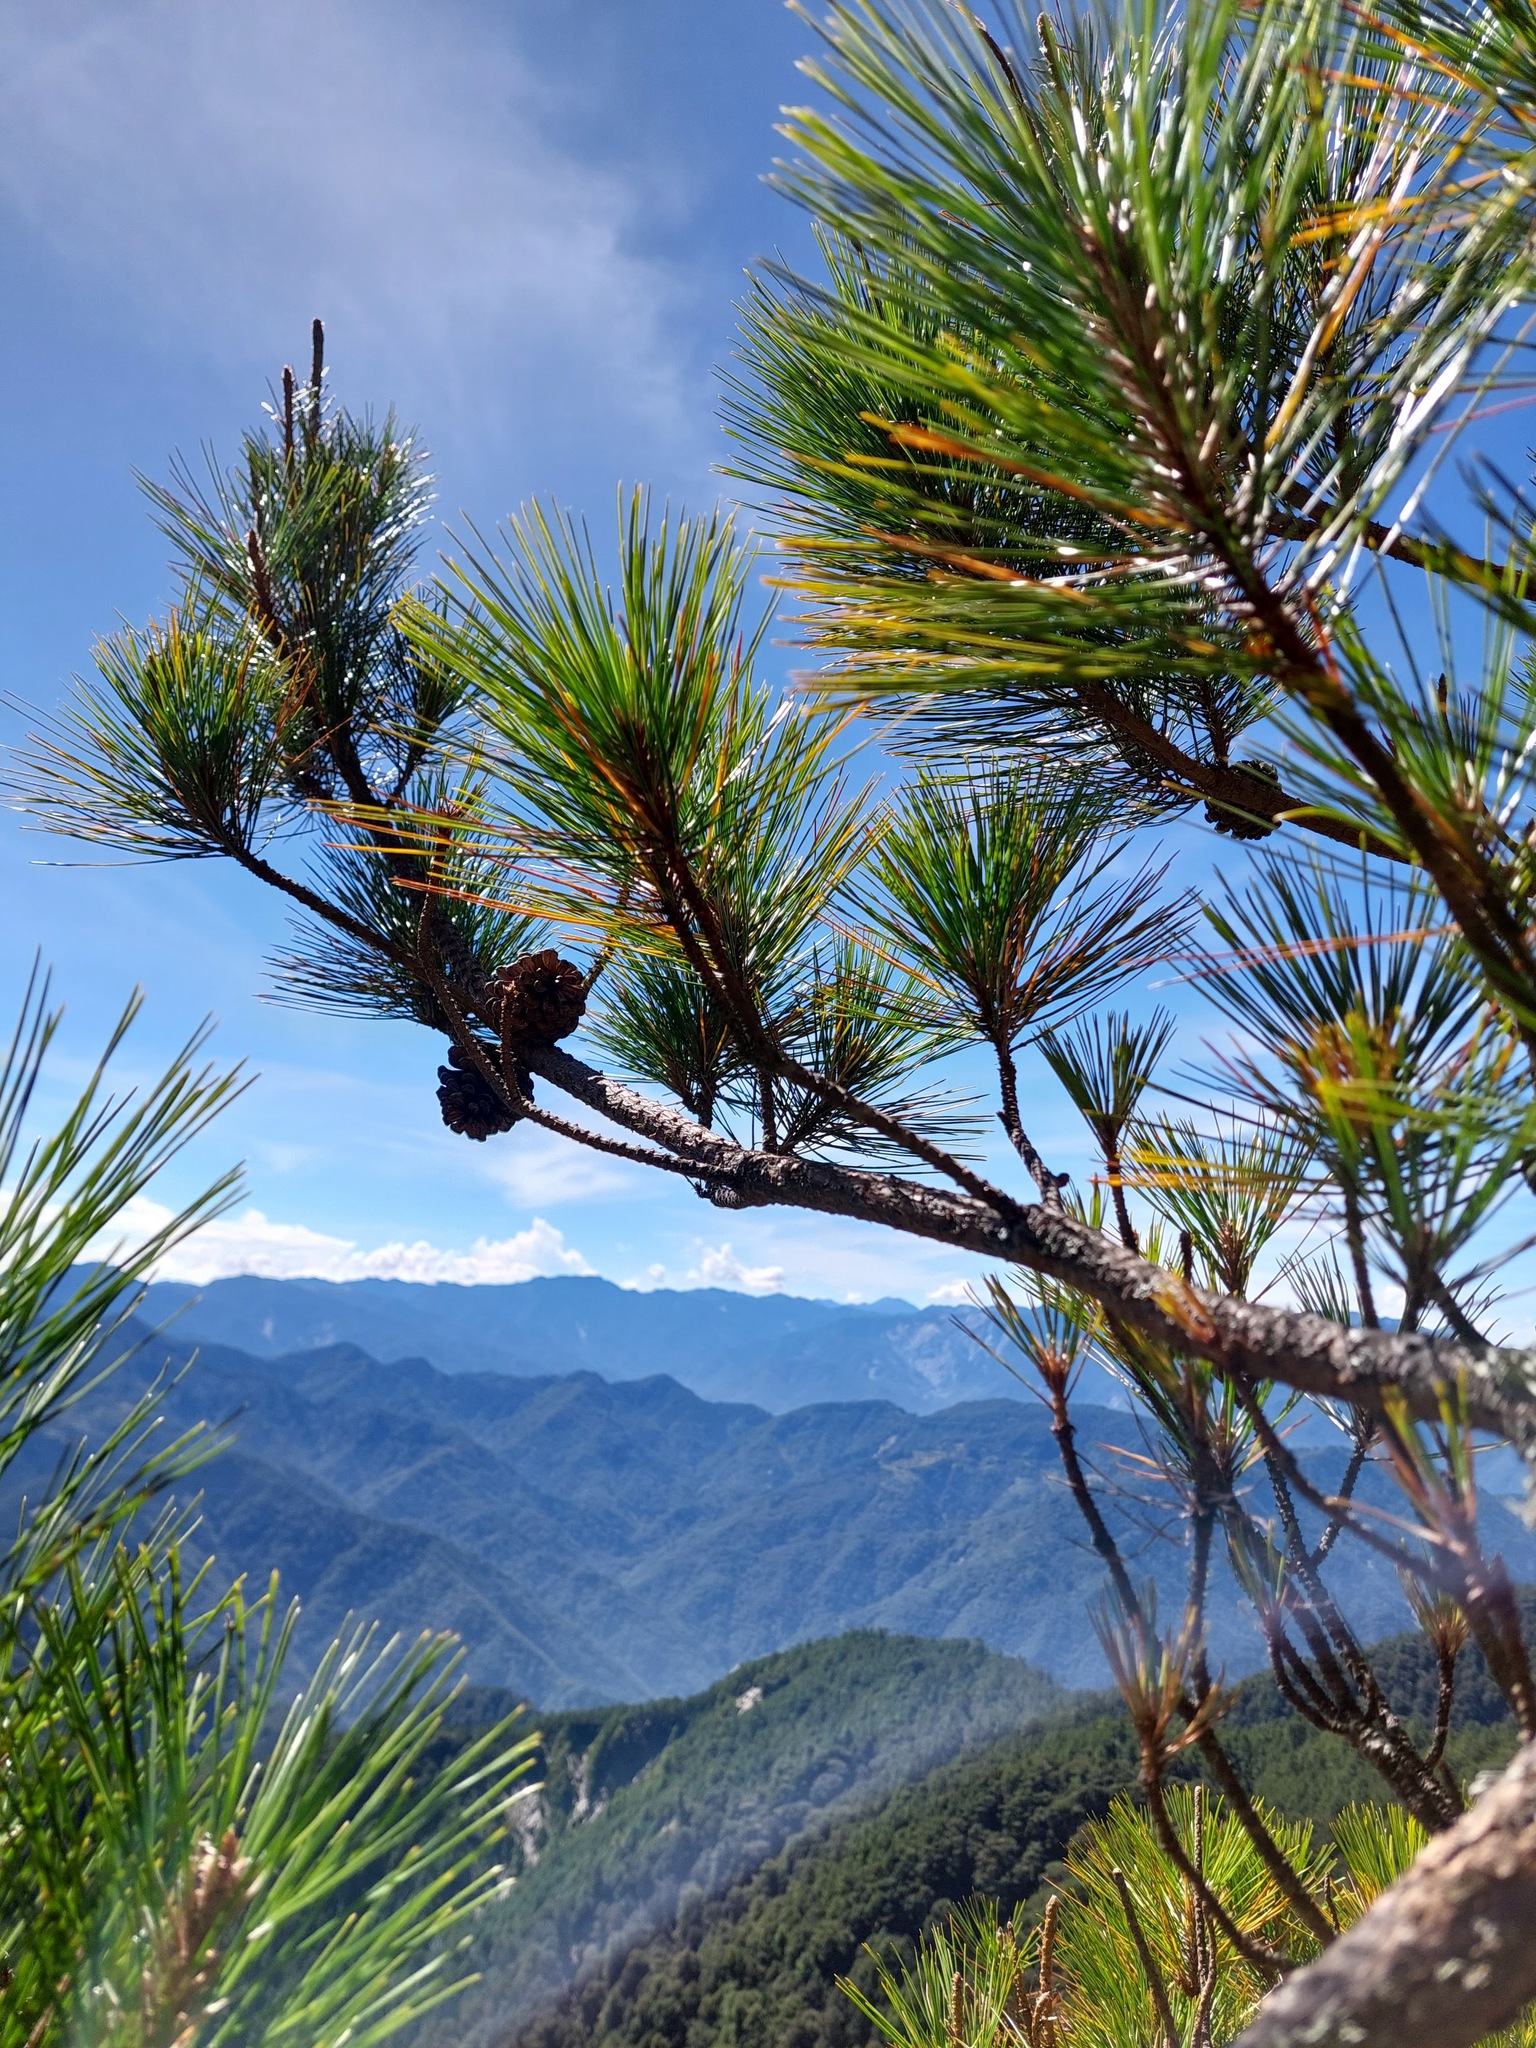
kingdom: Plantae
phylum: Tracheophyta
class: Pinopsida
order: Pinales
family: Pinaceae
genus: Pinus
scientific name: Pinus taiwanensis
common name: Formosa pine
